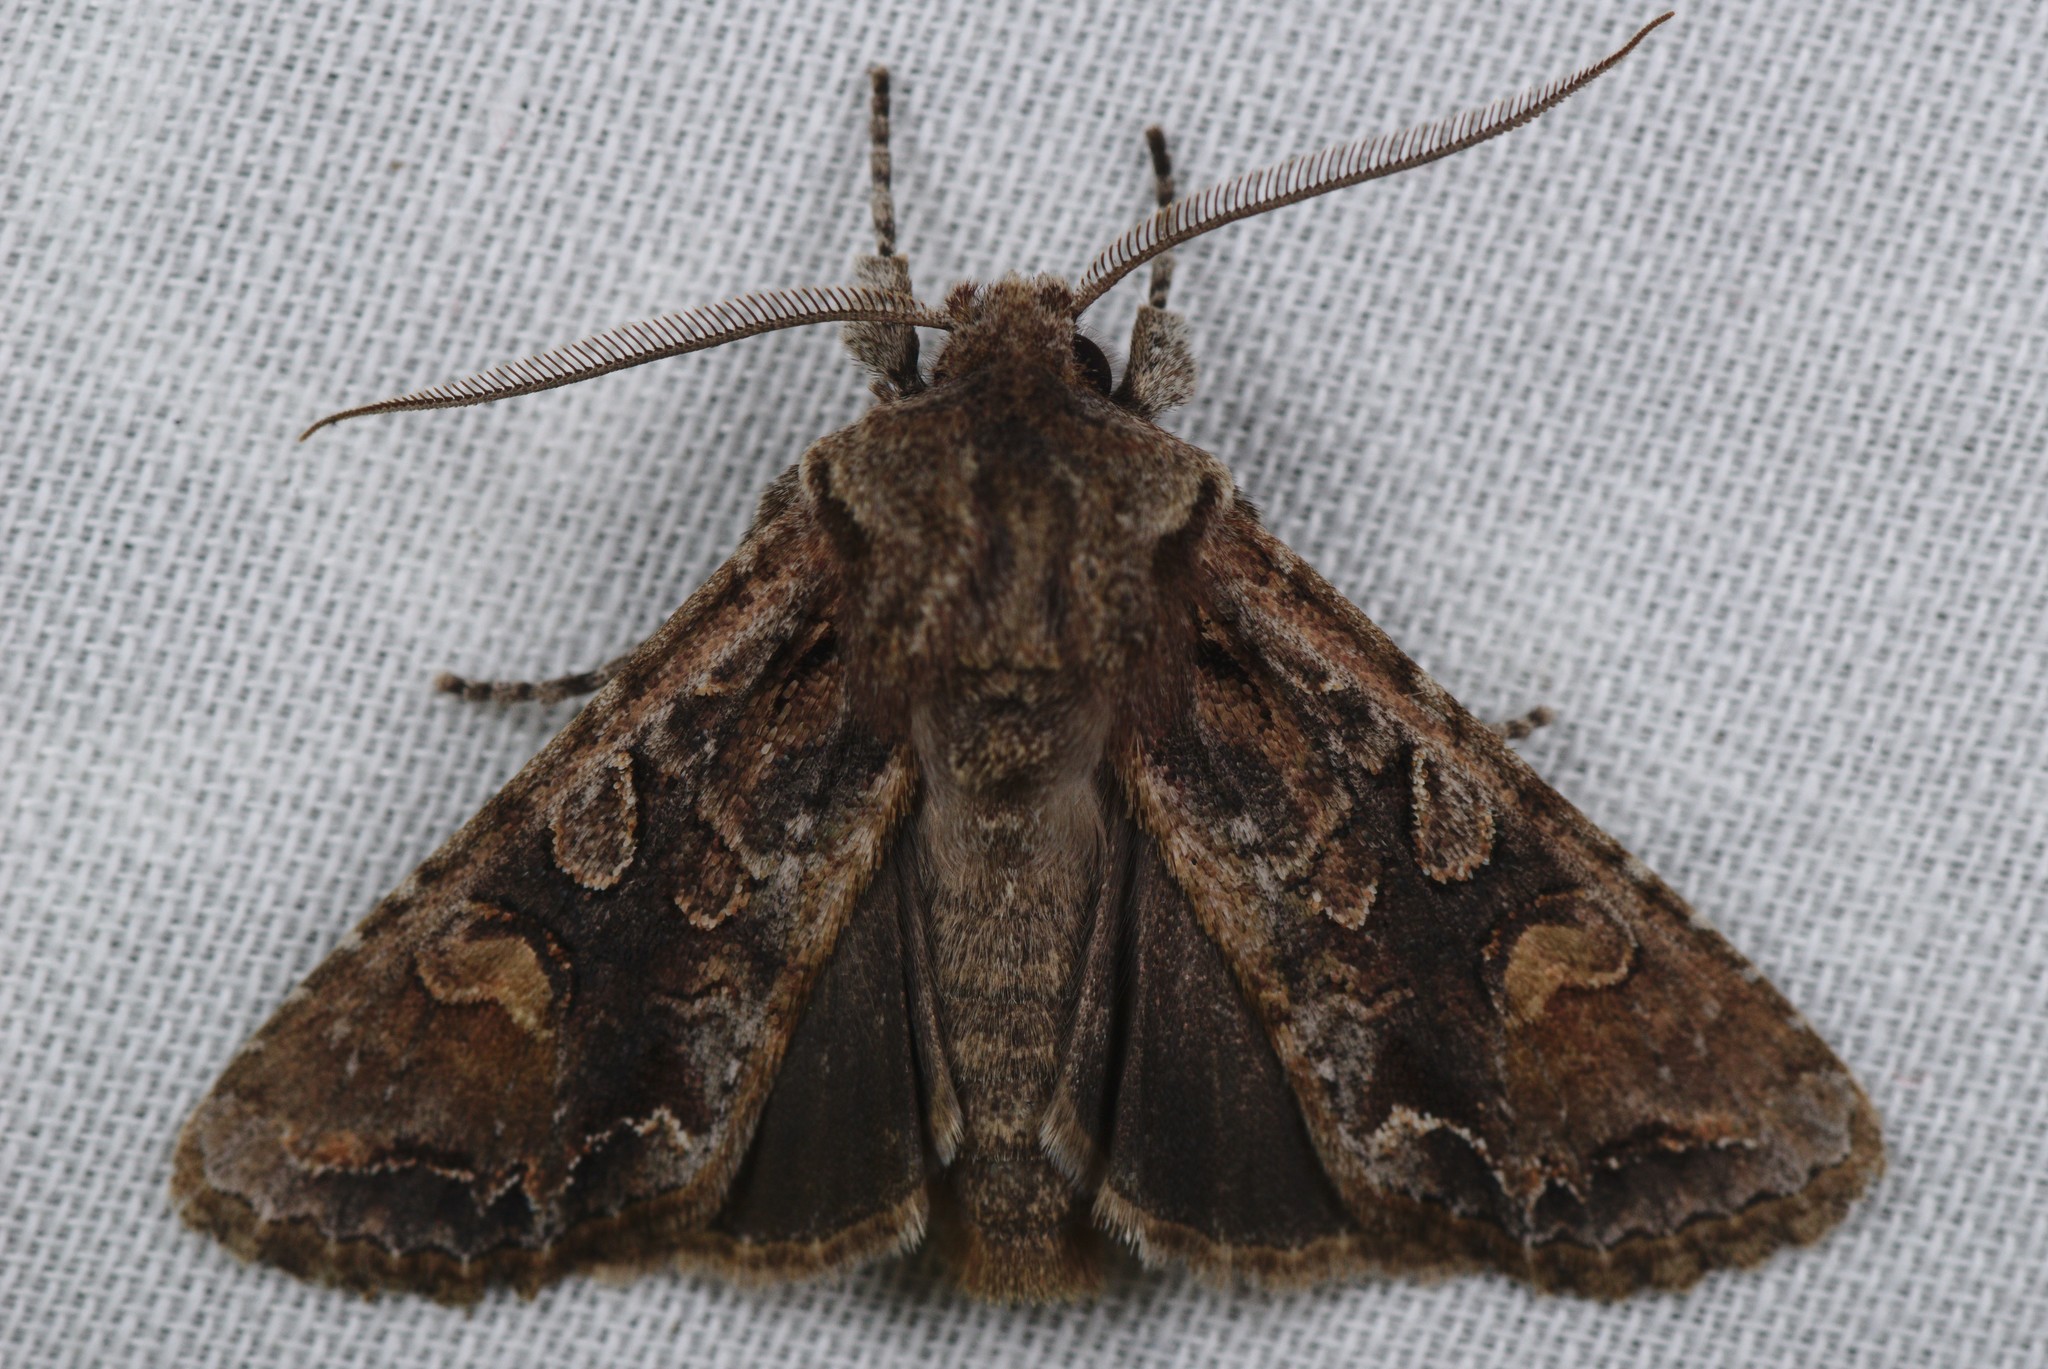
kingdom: Animalia
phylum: Arthropoda
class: Insecta
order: Lepidoptera
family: Noctuidae
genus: Ichneutica
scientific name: Ichneutica insignis
